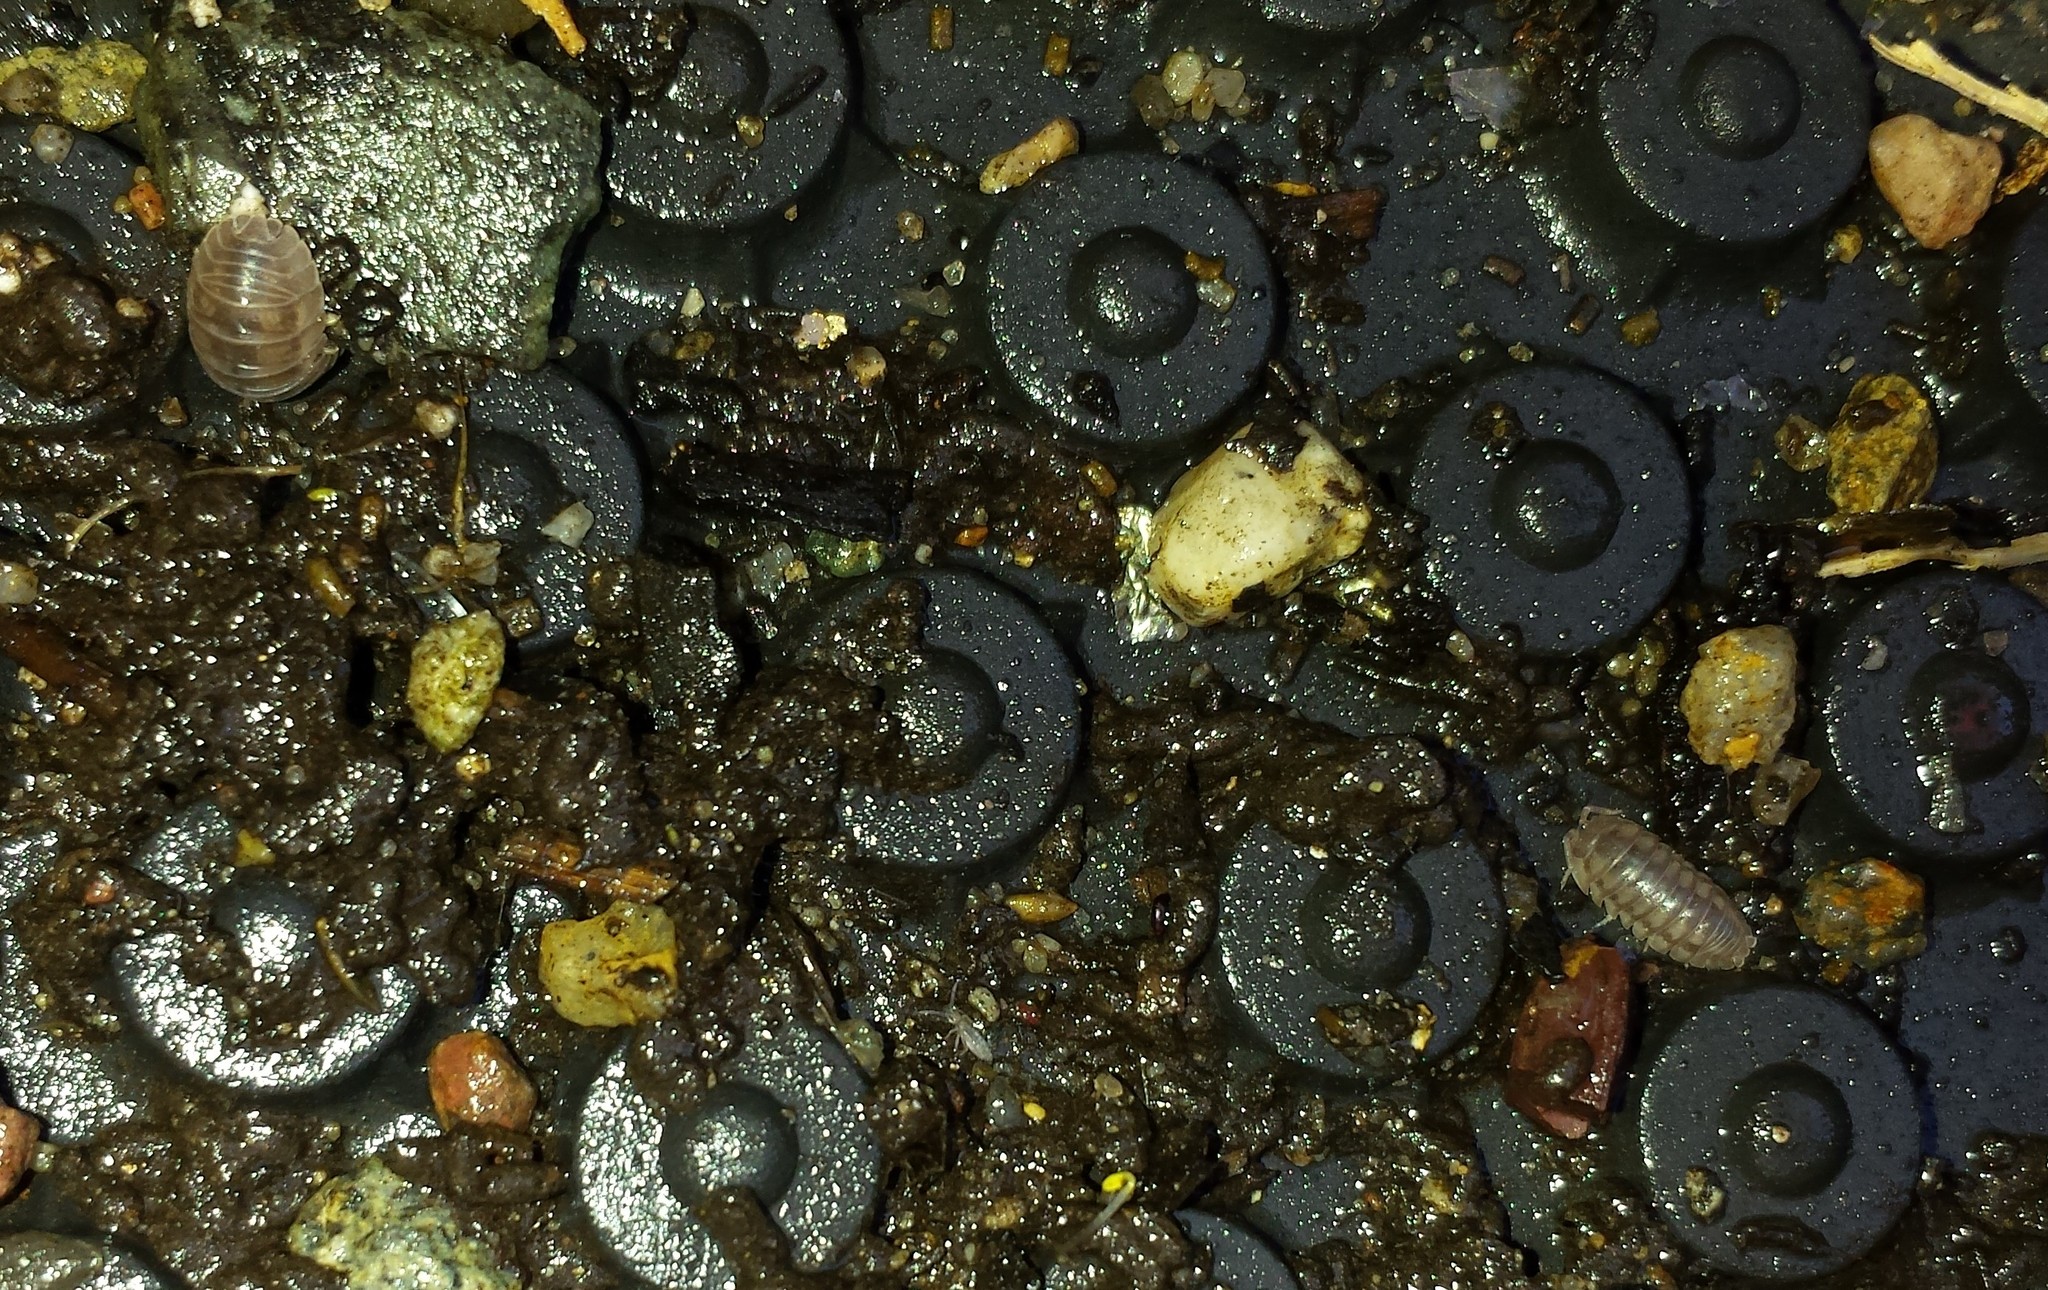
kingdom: Animalia
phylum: Arthropoda
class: Malacostraca
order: Isopoda
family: Armadillidiidae
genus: Armadillidium
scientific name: Armadillidium nasatum
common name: Isopod
